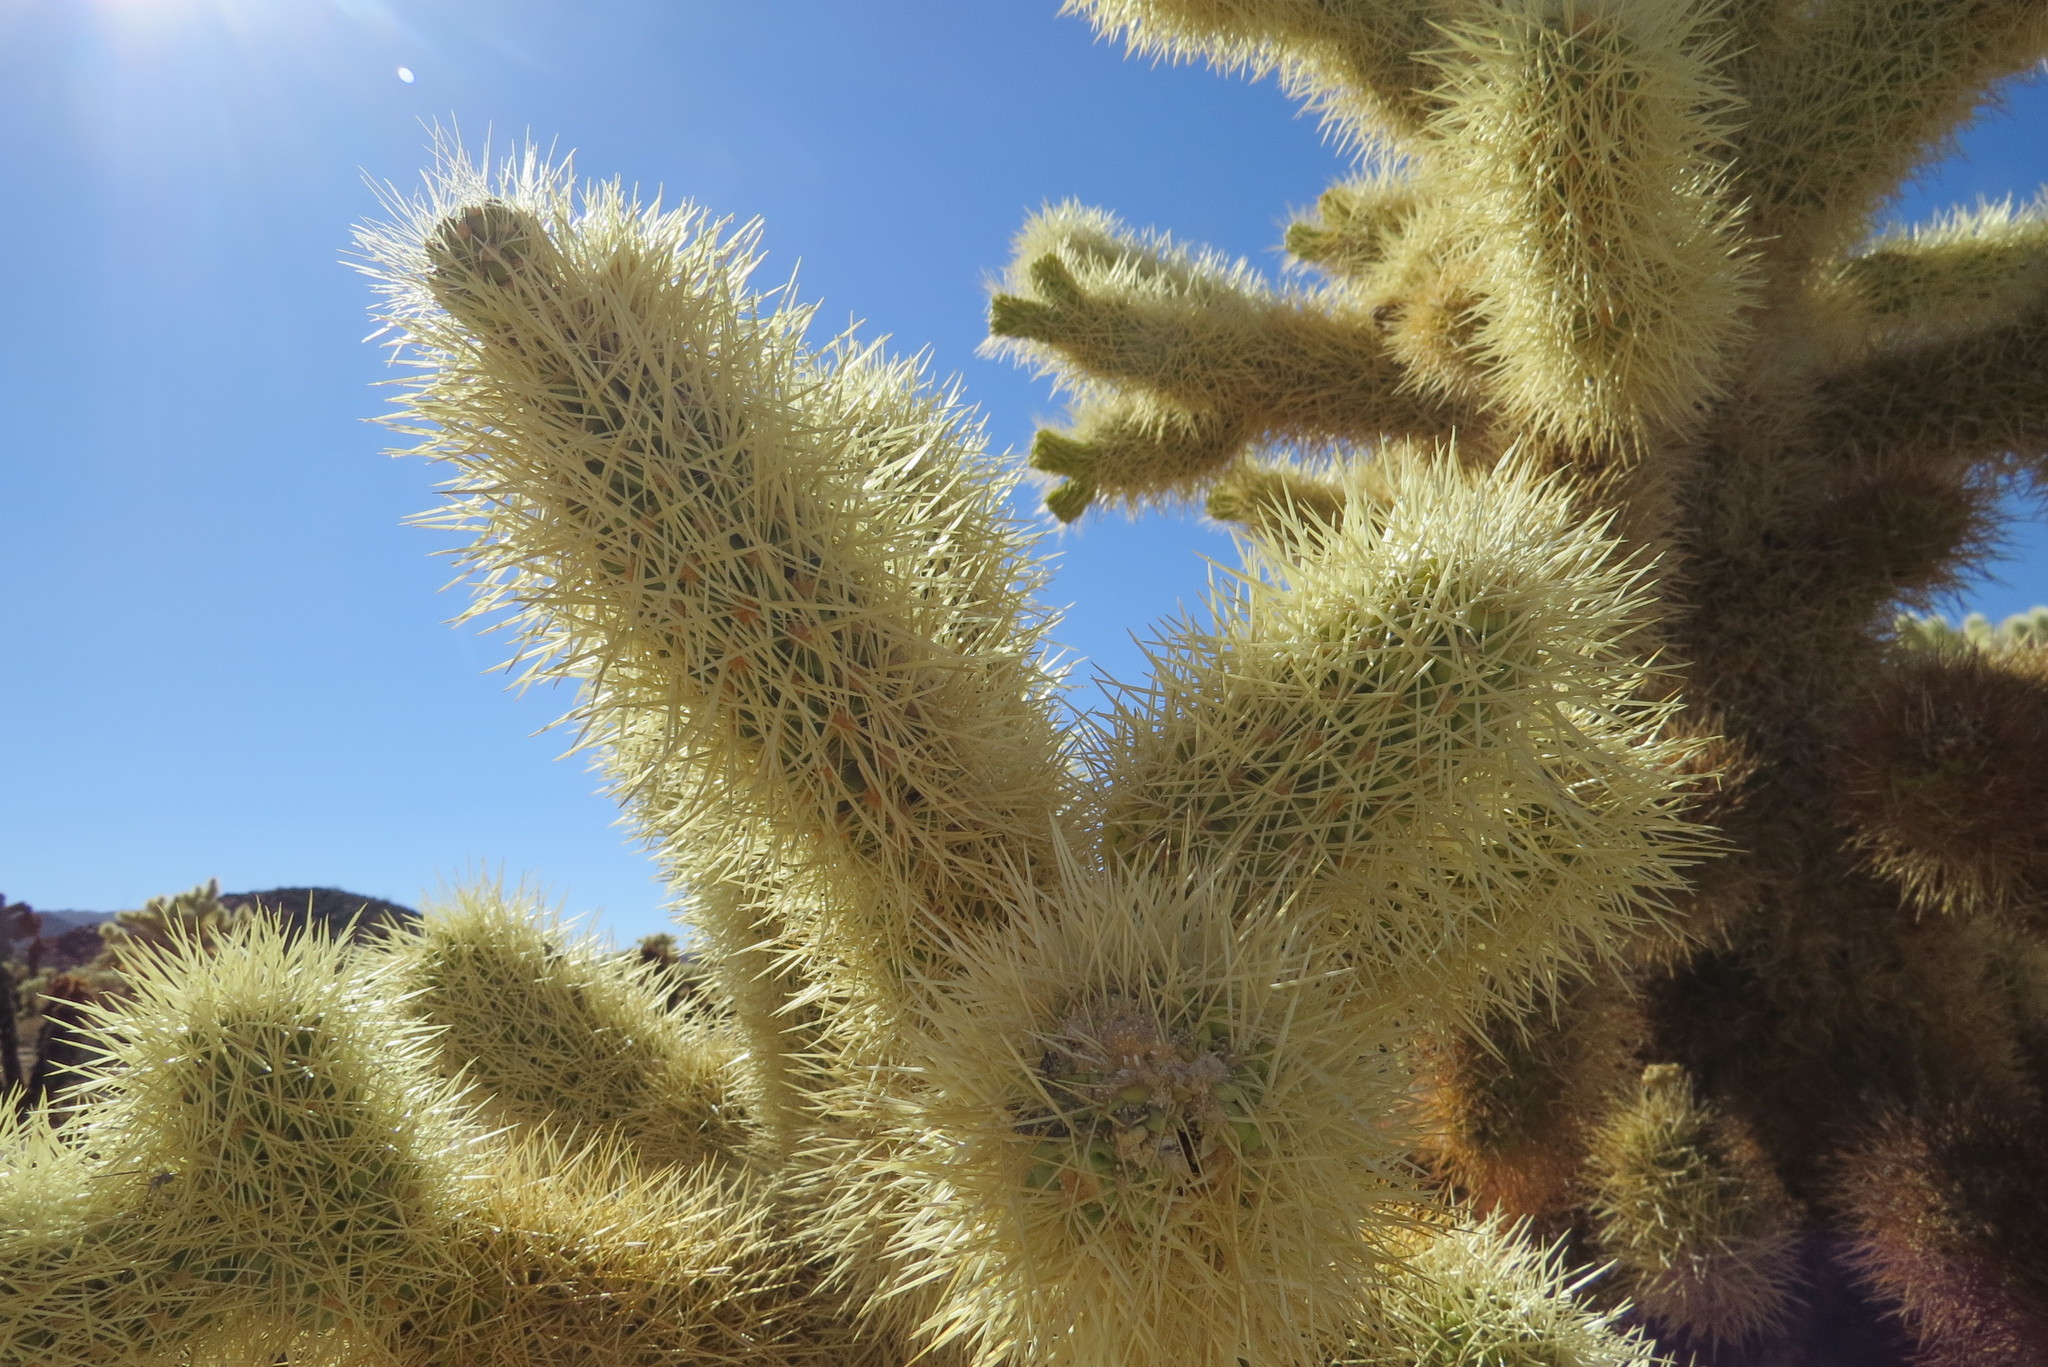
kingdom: Plantae
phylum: Tracheophyta
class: Magnoliopsida
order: Caryophyllales
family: Cactaceae
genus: Cylindropuntia
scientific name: Cylindropuntia fosbergii
